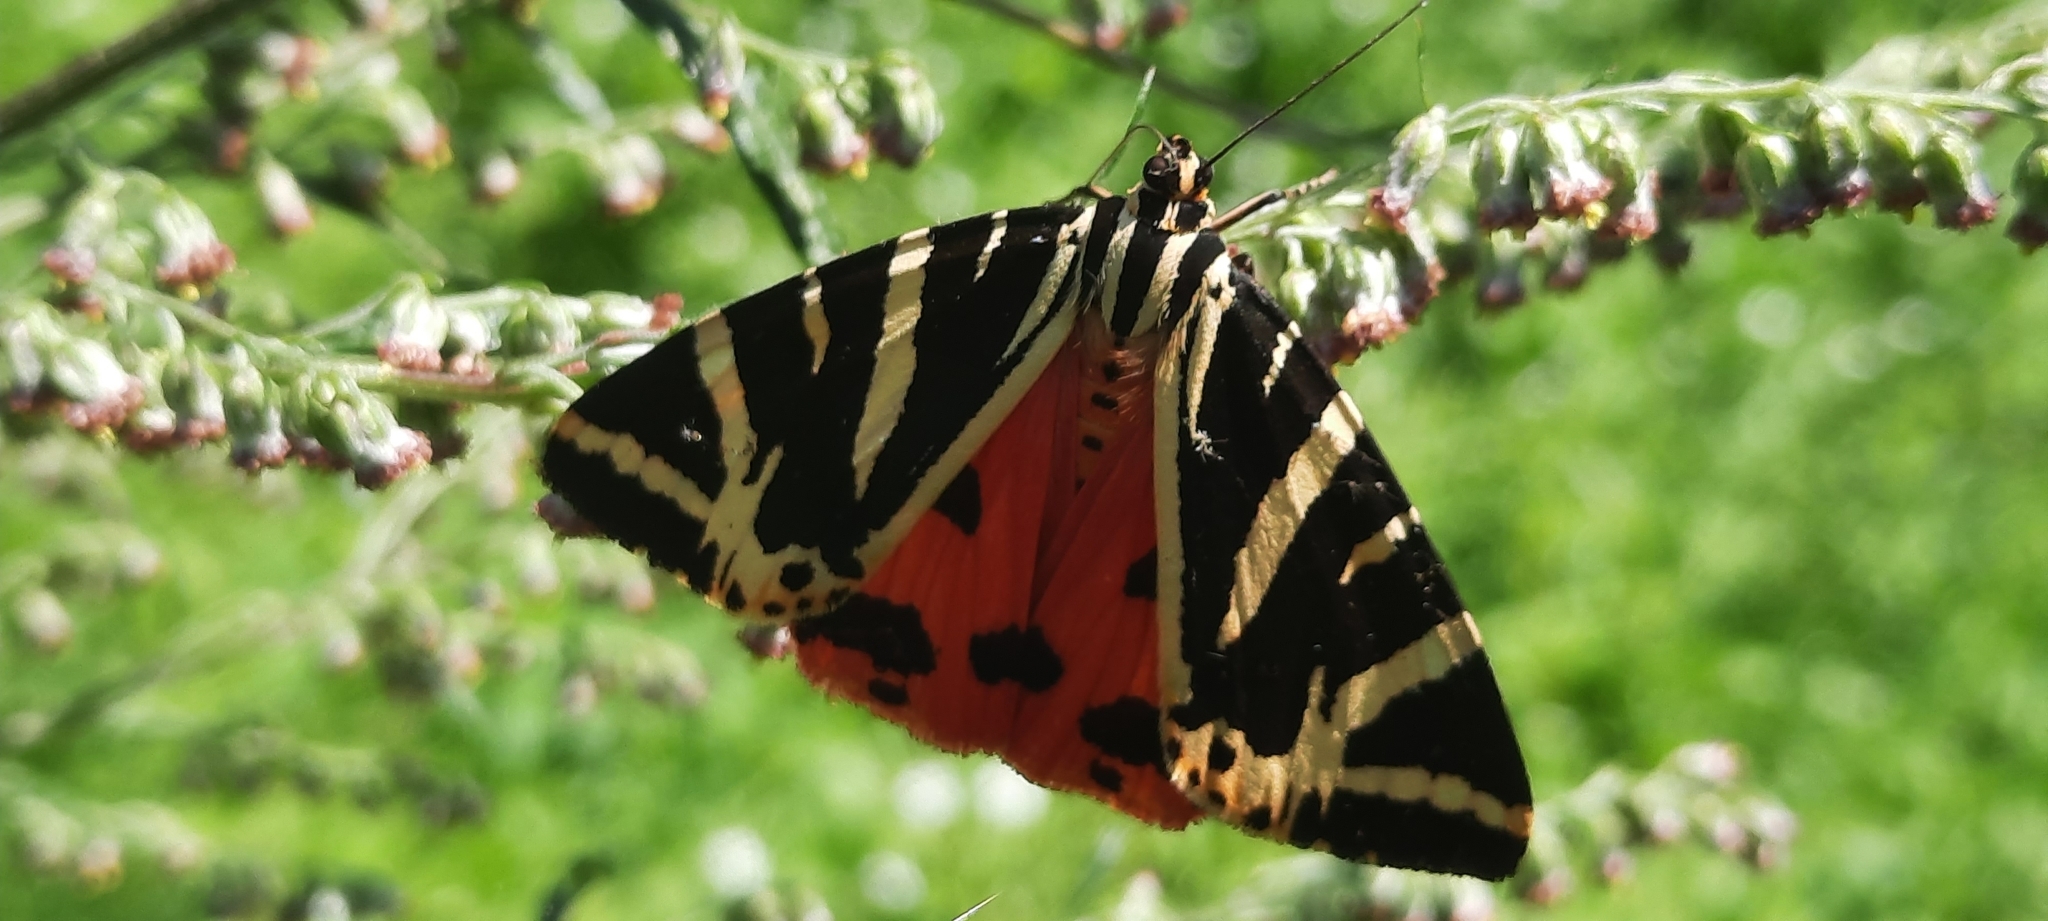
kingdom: Animalia
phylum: Arthropoda
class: Insecta
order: Lepidoptera
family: Erebidae
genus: Euplagia
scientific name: Euplagia quadripunctaria
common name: Jersey tiger
